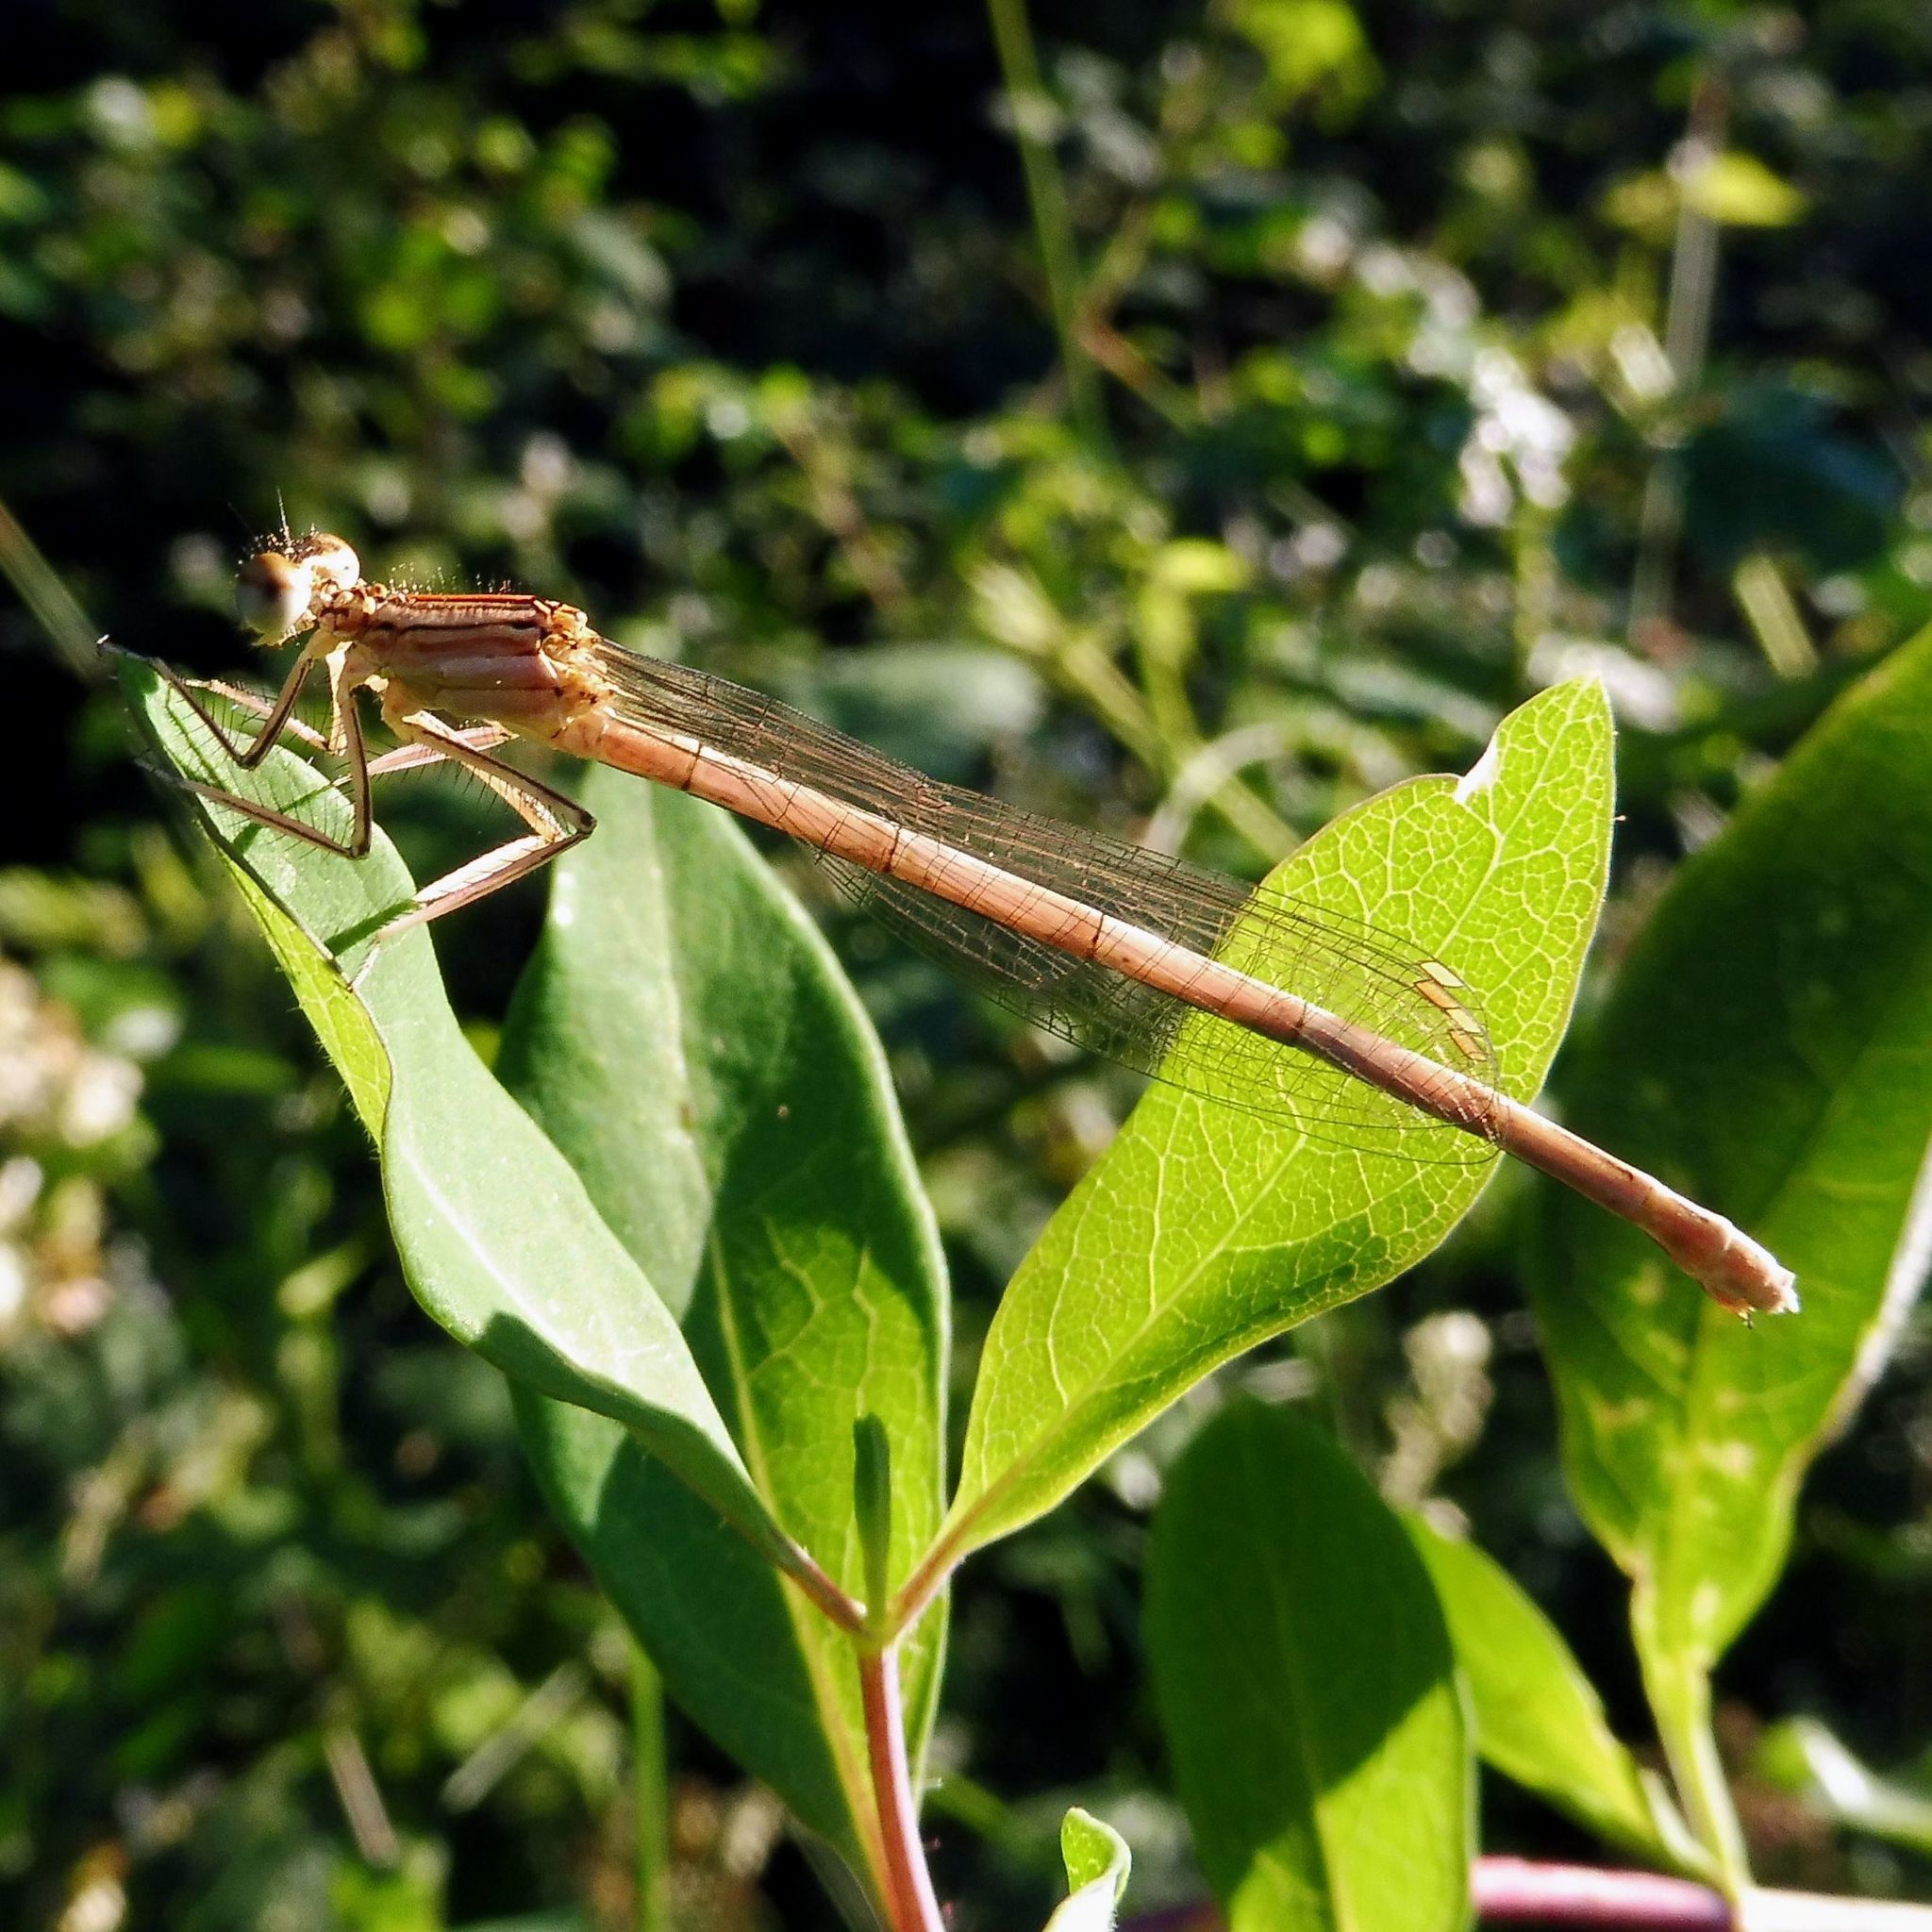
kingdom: Animalia
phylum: Arthropoda
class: Insecta
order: Odonata
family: Platycnemididae
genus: Platycnemis
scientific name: Platycnemis pennipes
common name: White-legged damselfly
